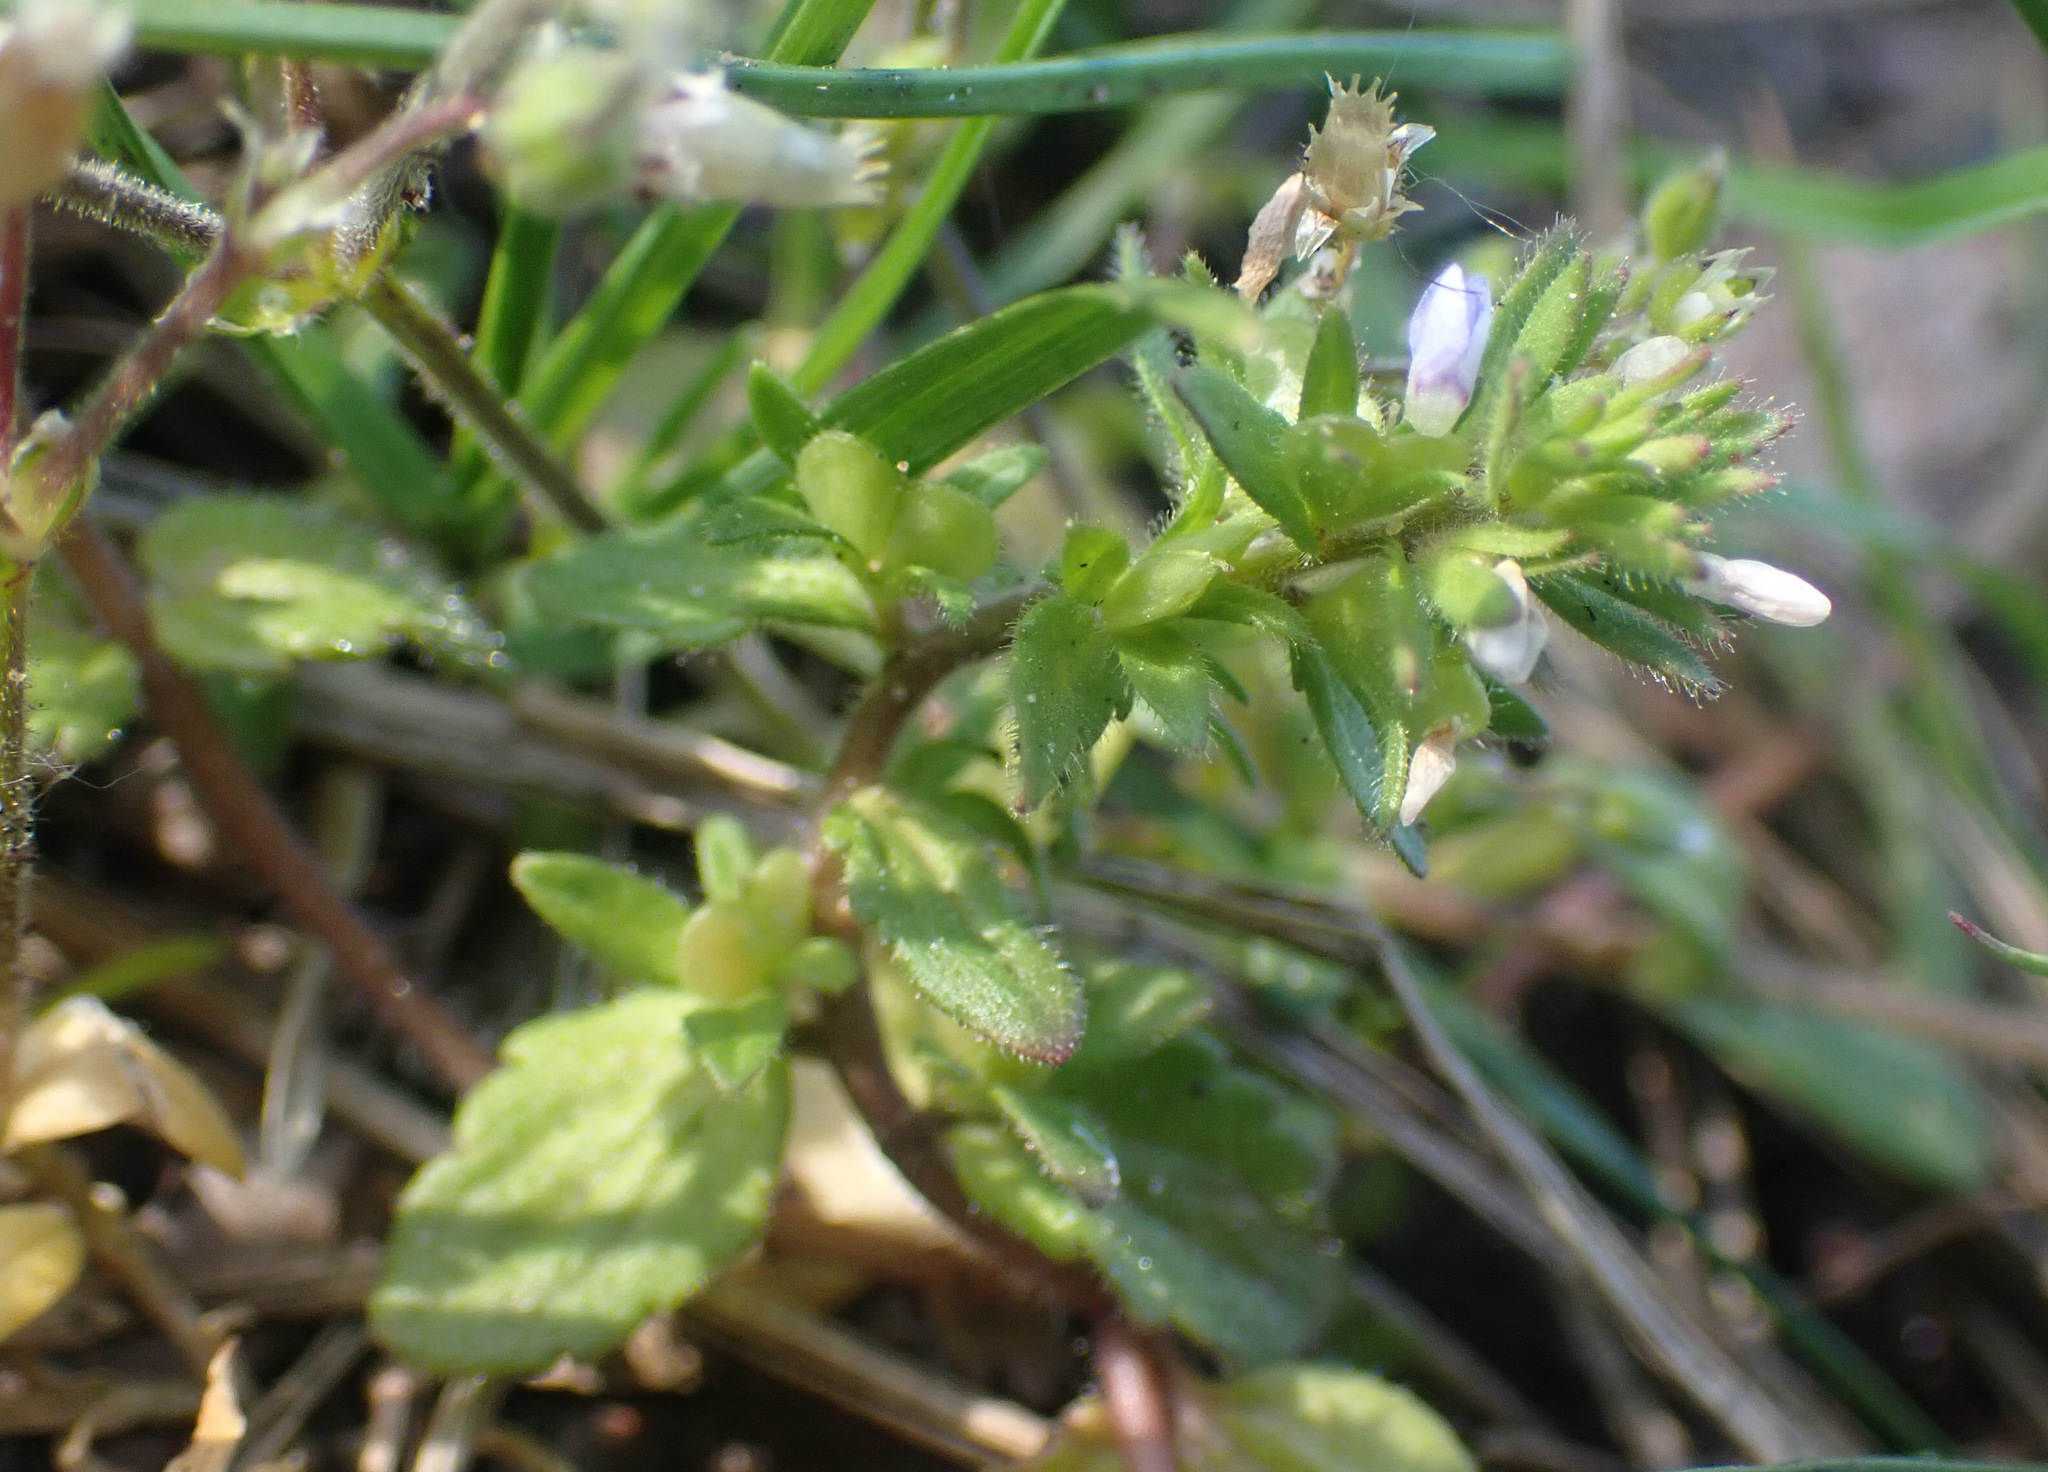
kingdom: Plantae
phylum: Tracheophyta
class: Magnoliopsida
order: Lamiales
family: Plantaginaceae
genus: Veronica
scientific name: Veronica arvensis
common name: Corn speedwell
